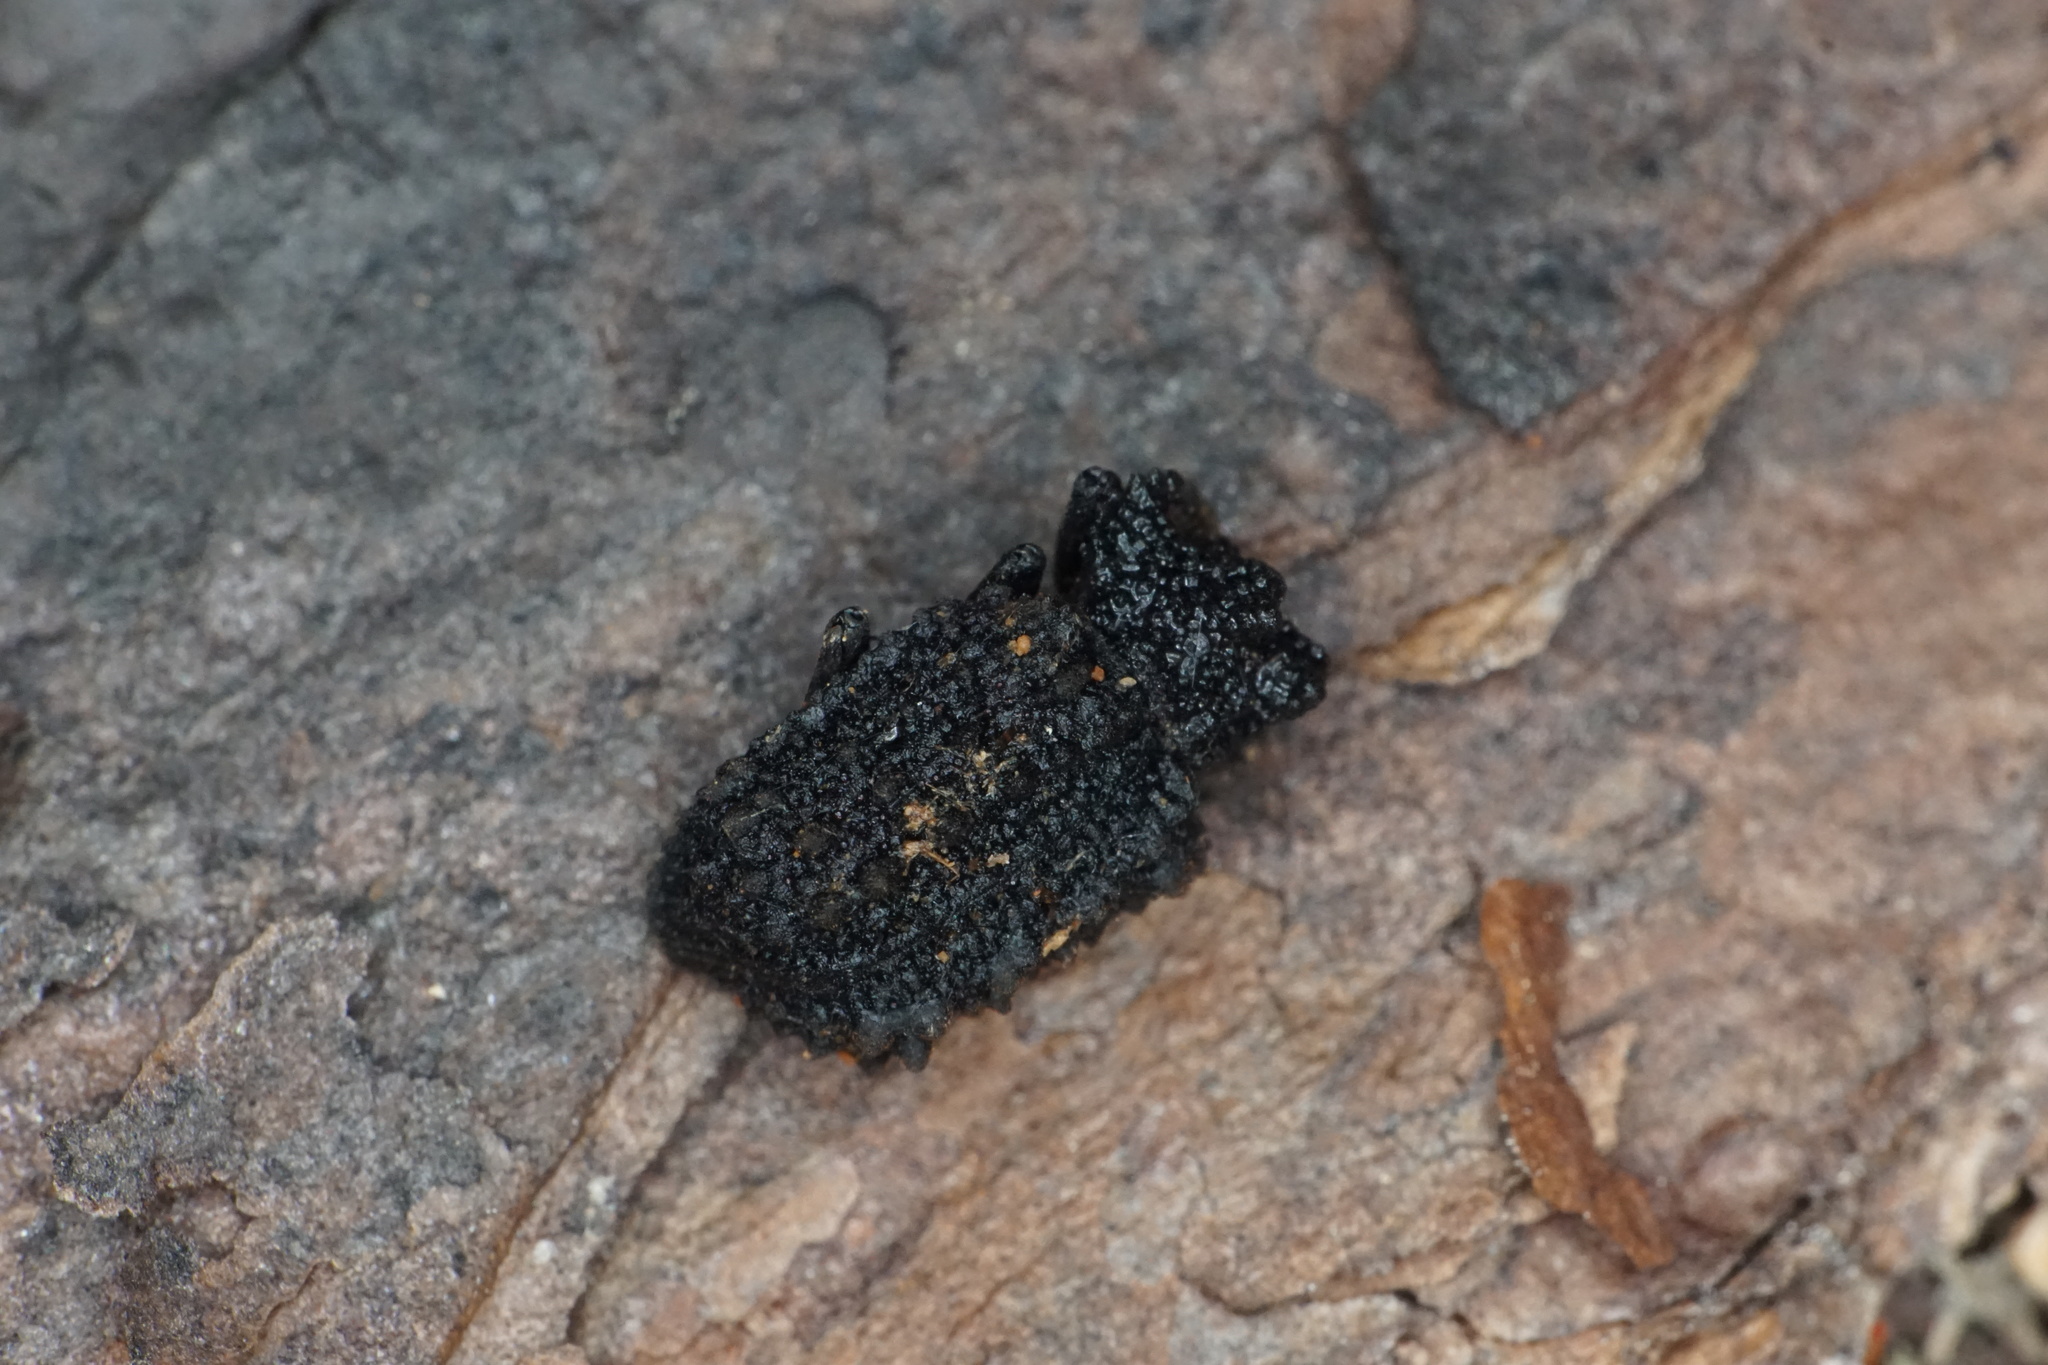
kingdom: Animalia
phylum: Arthropoda
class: Insecta
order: Coleoptera
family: Tenebrionidae
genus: Gnatocerus
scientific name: Gnatocerus cornutus
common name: Broad-horned flour beetle
